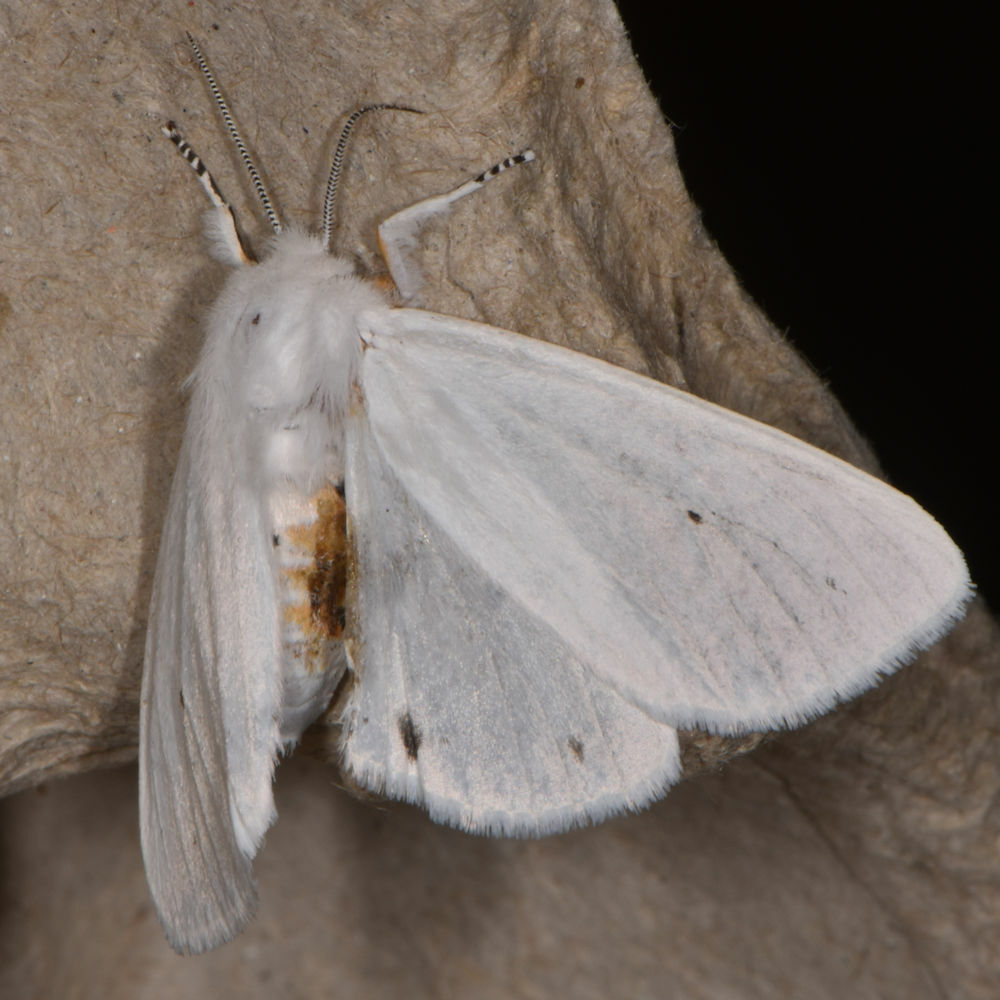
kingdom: Animalia
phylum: Arthropoda
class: Insecta
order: Lepidoptera
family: Erebidae
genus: Spilosoma
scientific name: Spilosoma virginica
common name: Virginia tiger moth
